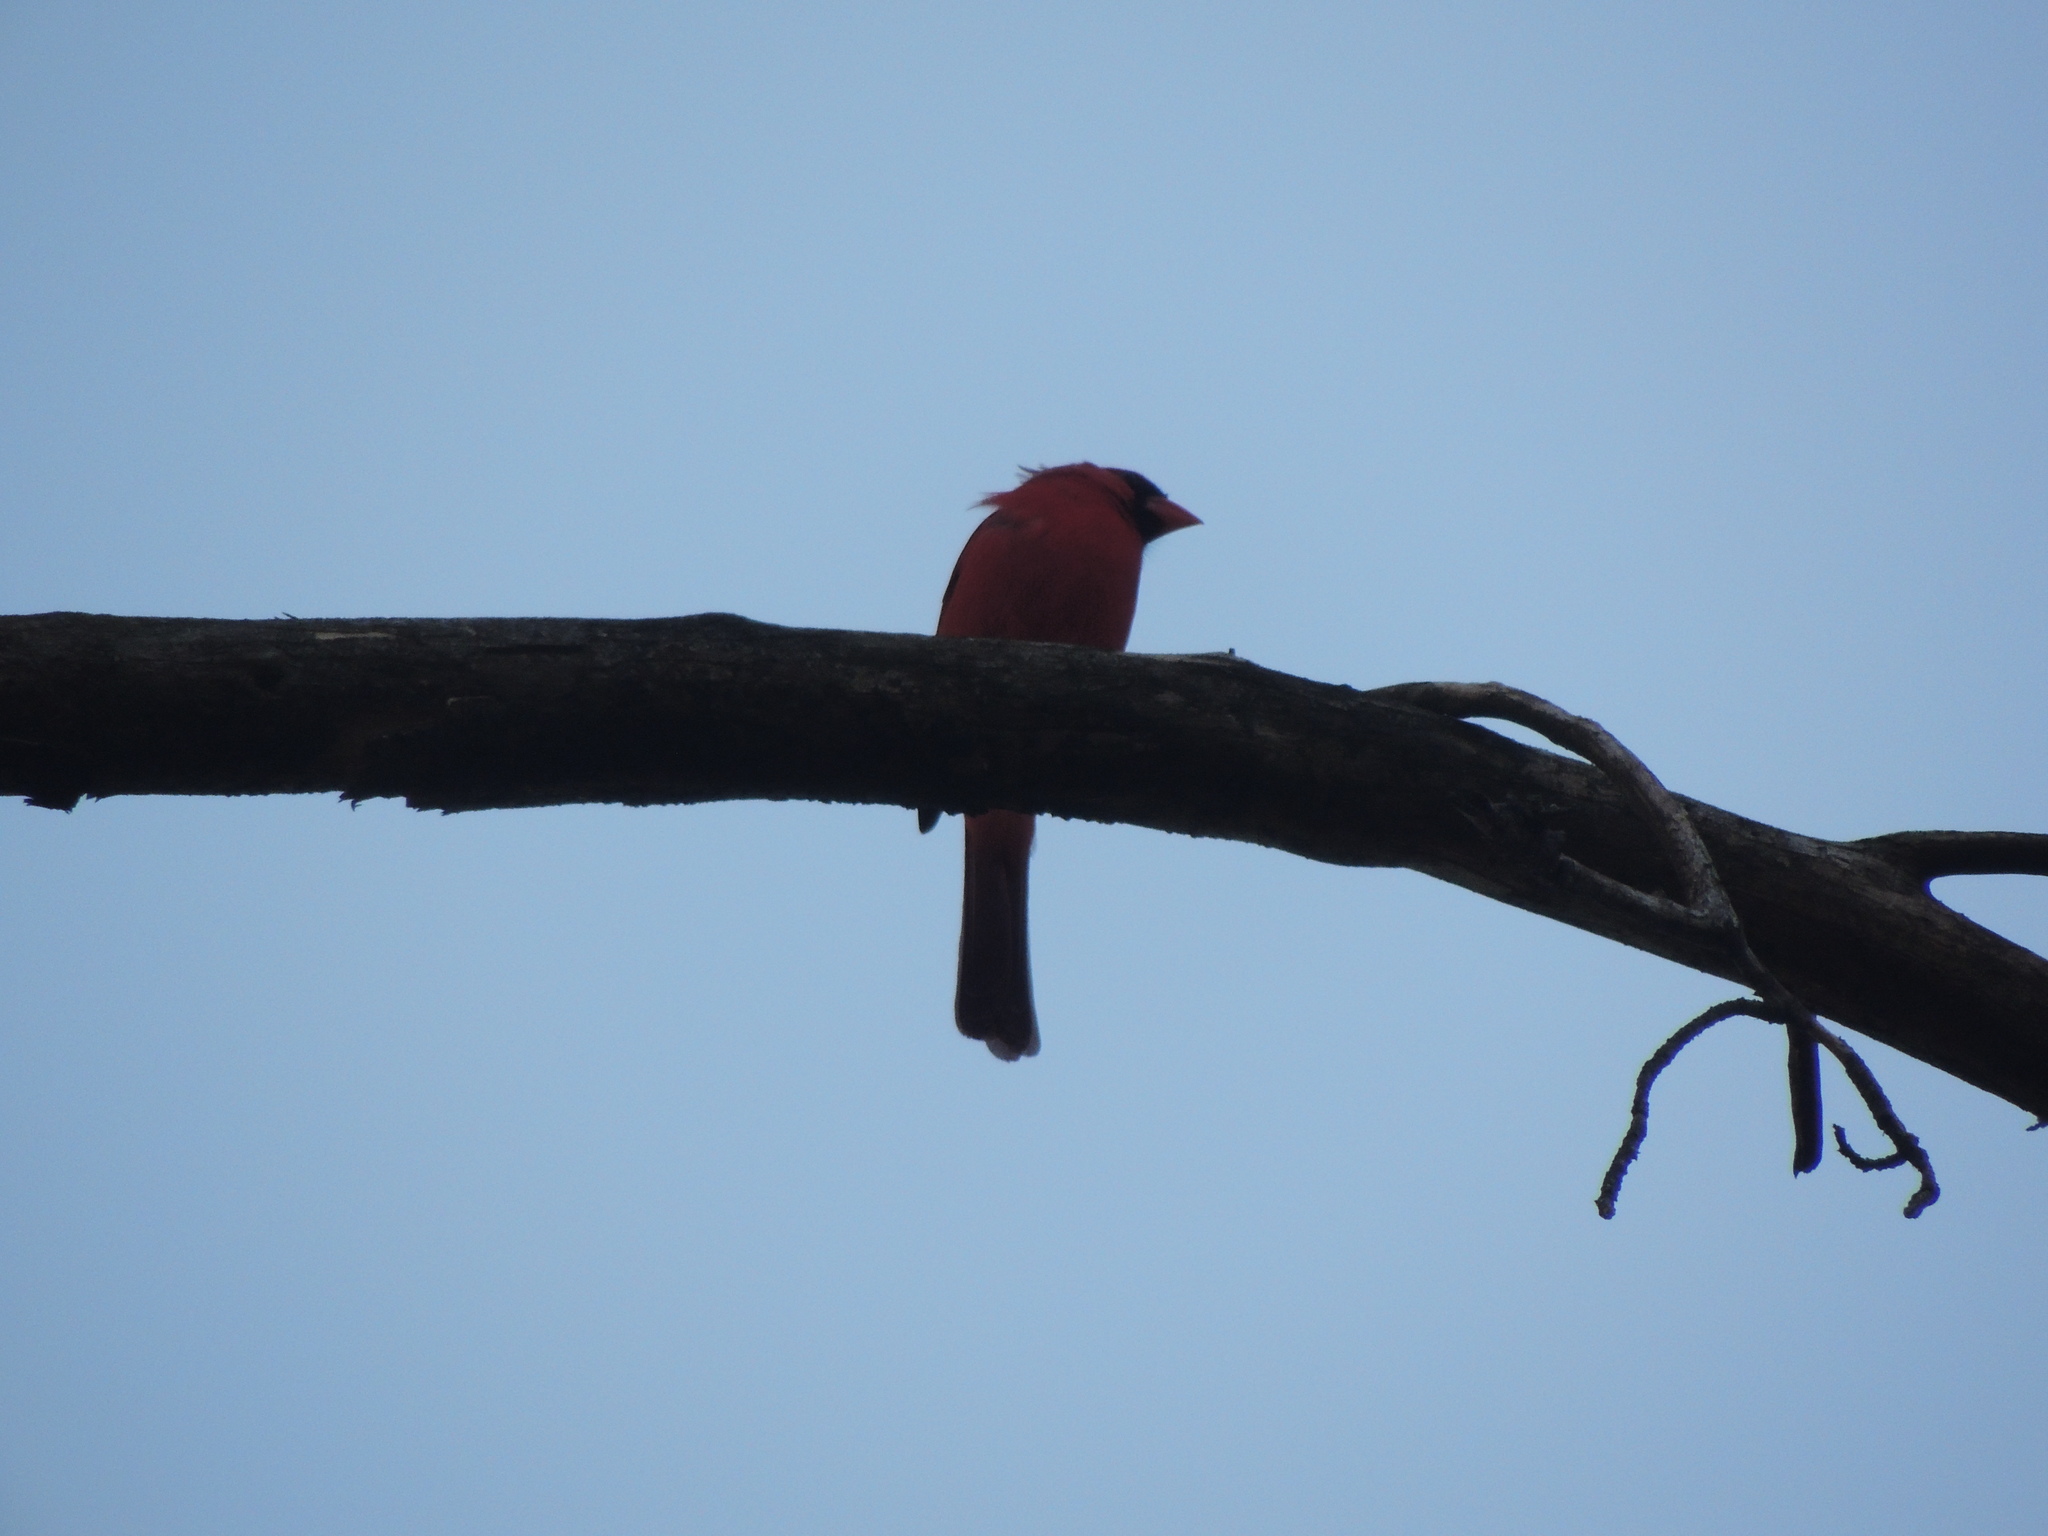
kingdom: Animalia
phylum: Chordata
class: Aves
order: Passeriformes
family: Cardinalidae
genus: Cardinalis
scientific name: Cardinalis cardinalis
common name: Northern cardinal
